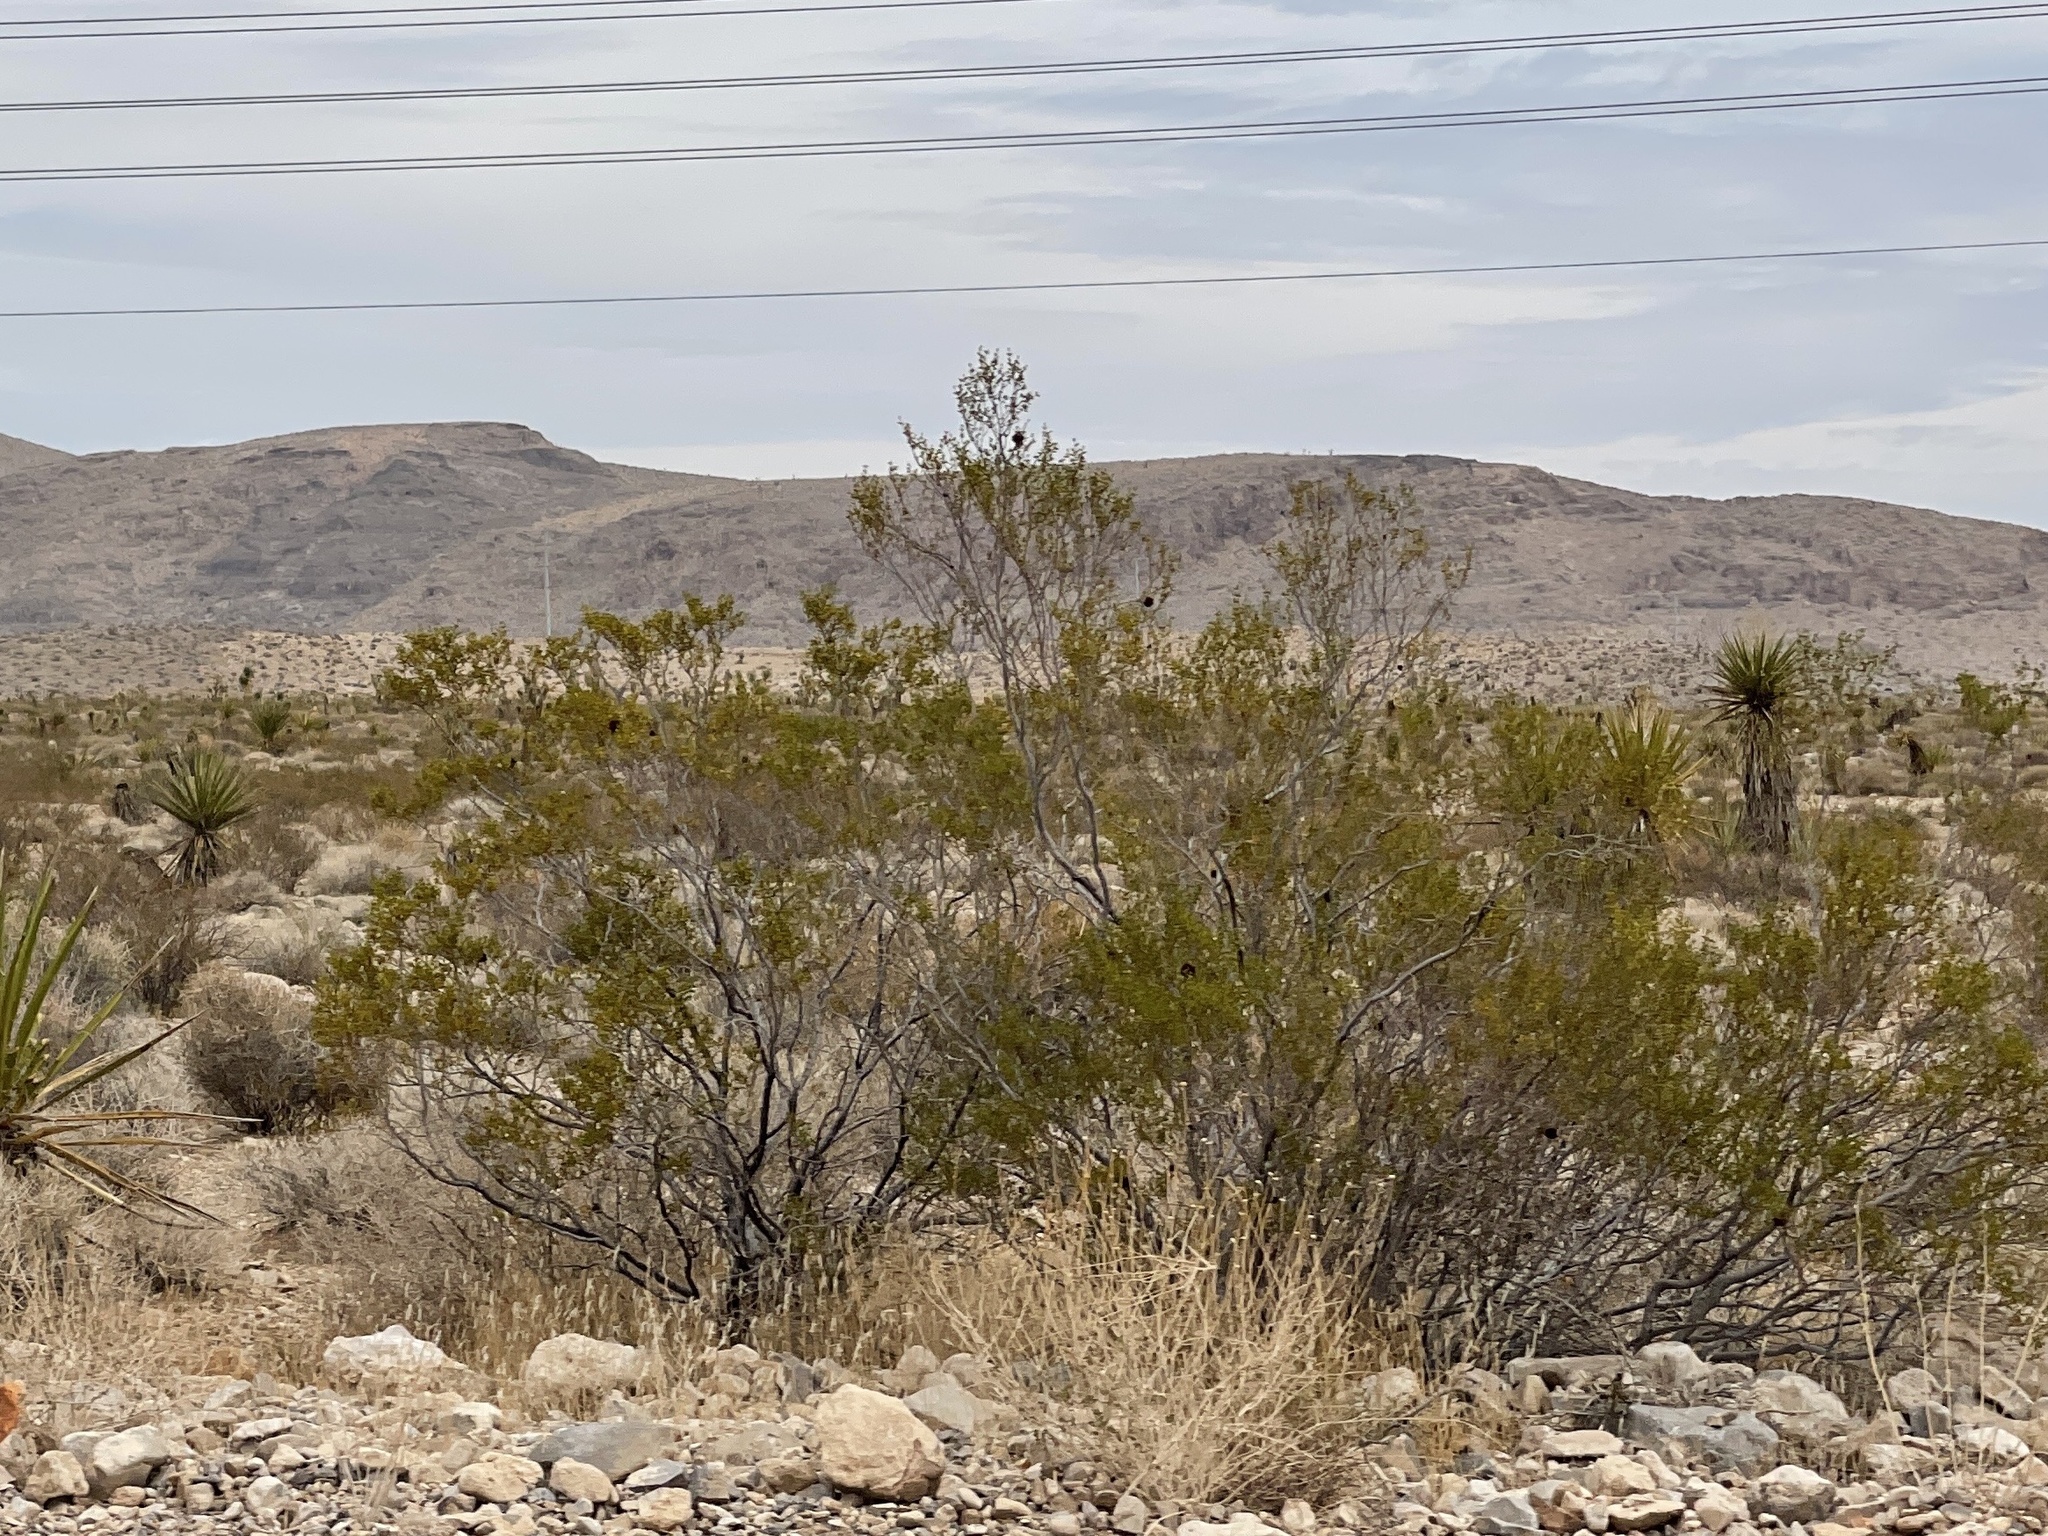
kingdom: Plantae
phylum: Tracheophyta
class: Magnoliopsida
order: Zygophyllales
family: Zygophyllaceae
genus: Larrea
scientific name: Larrea tridentata
